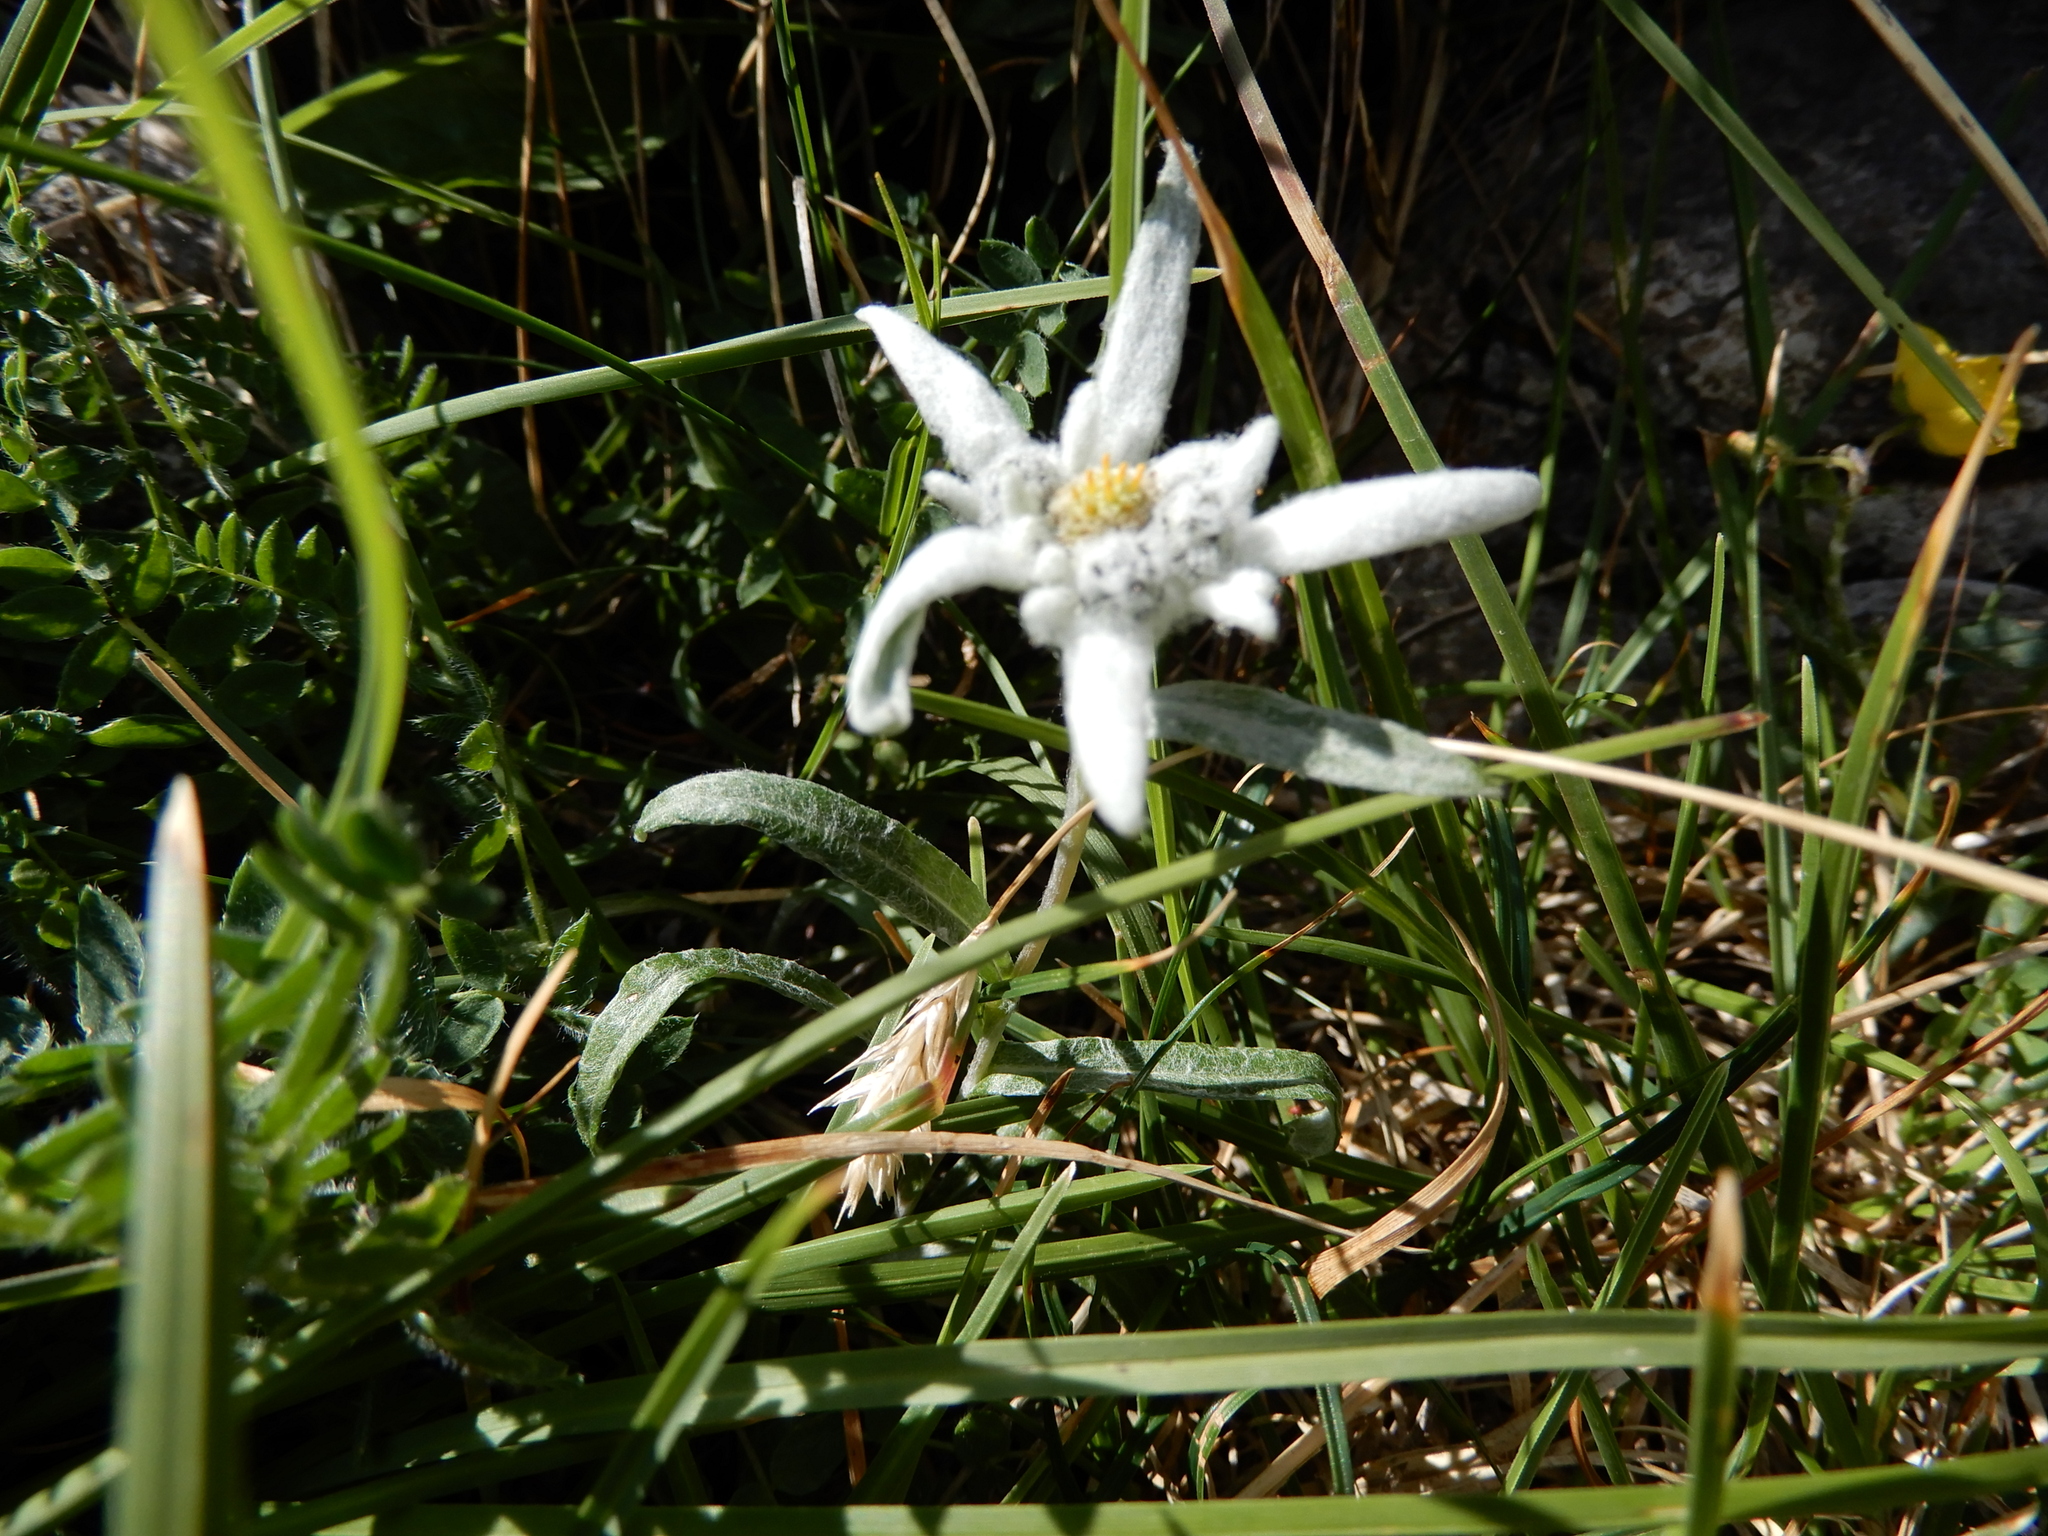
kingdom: Plantae
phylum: Tracheophyta
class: Magnoliopsida
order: Asterales
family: Asteraceae
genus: Leontopodium
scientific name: Leontopodium nivale
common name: Edelweiss
